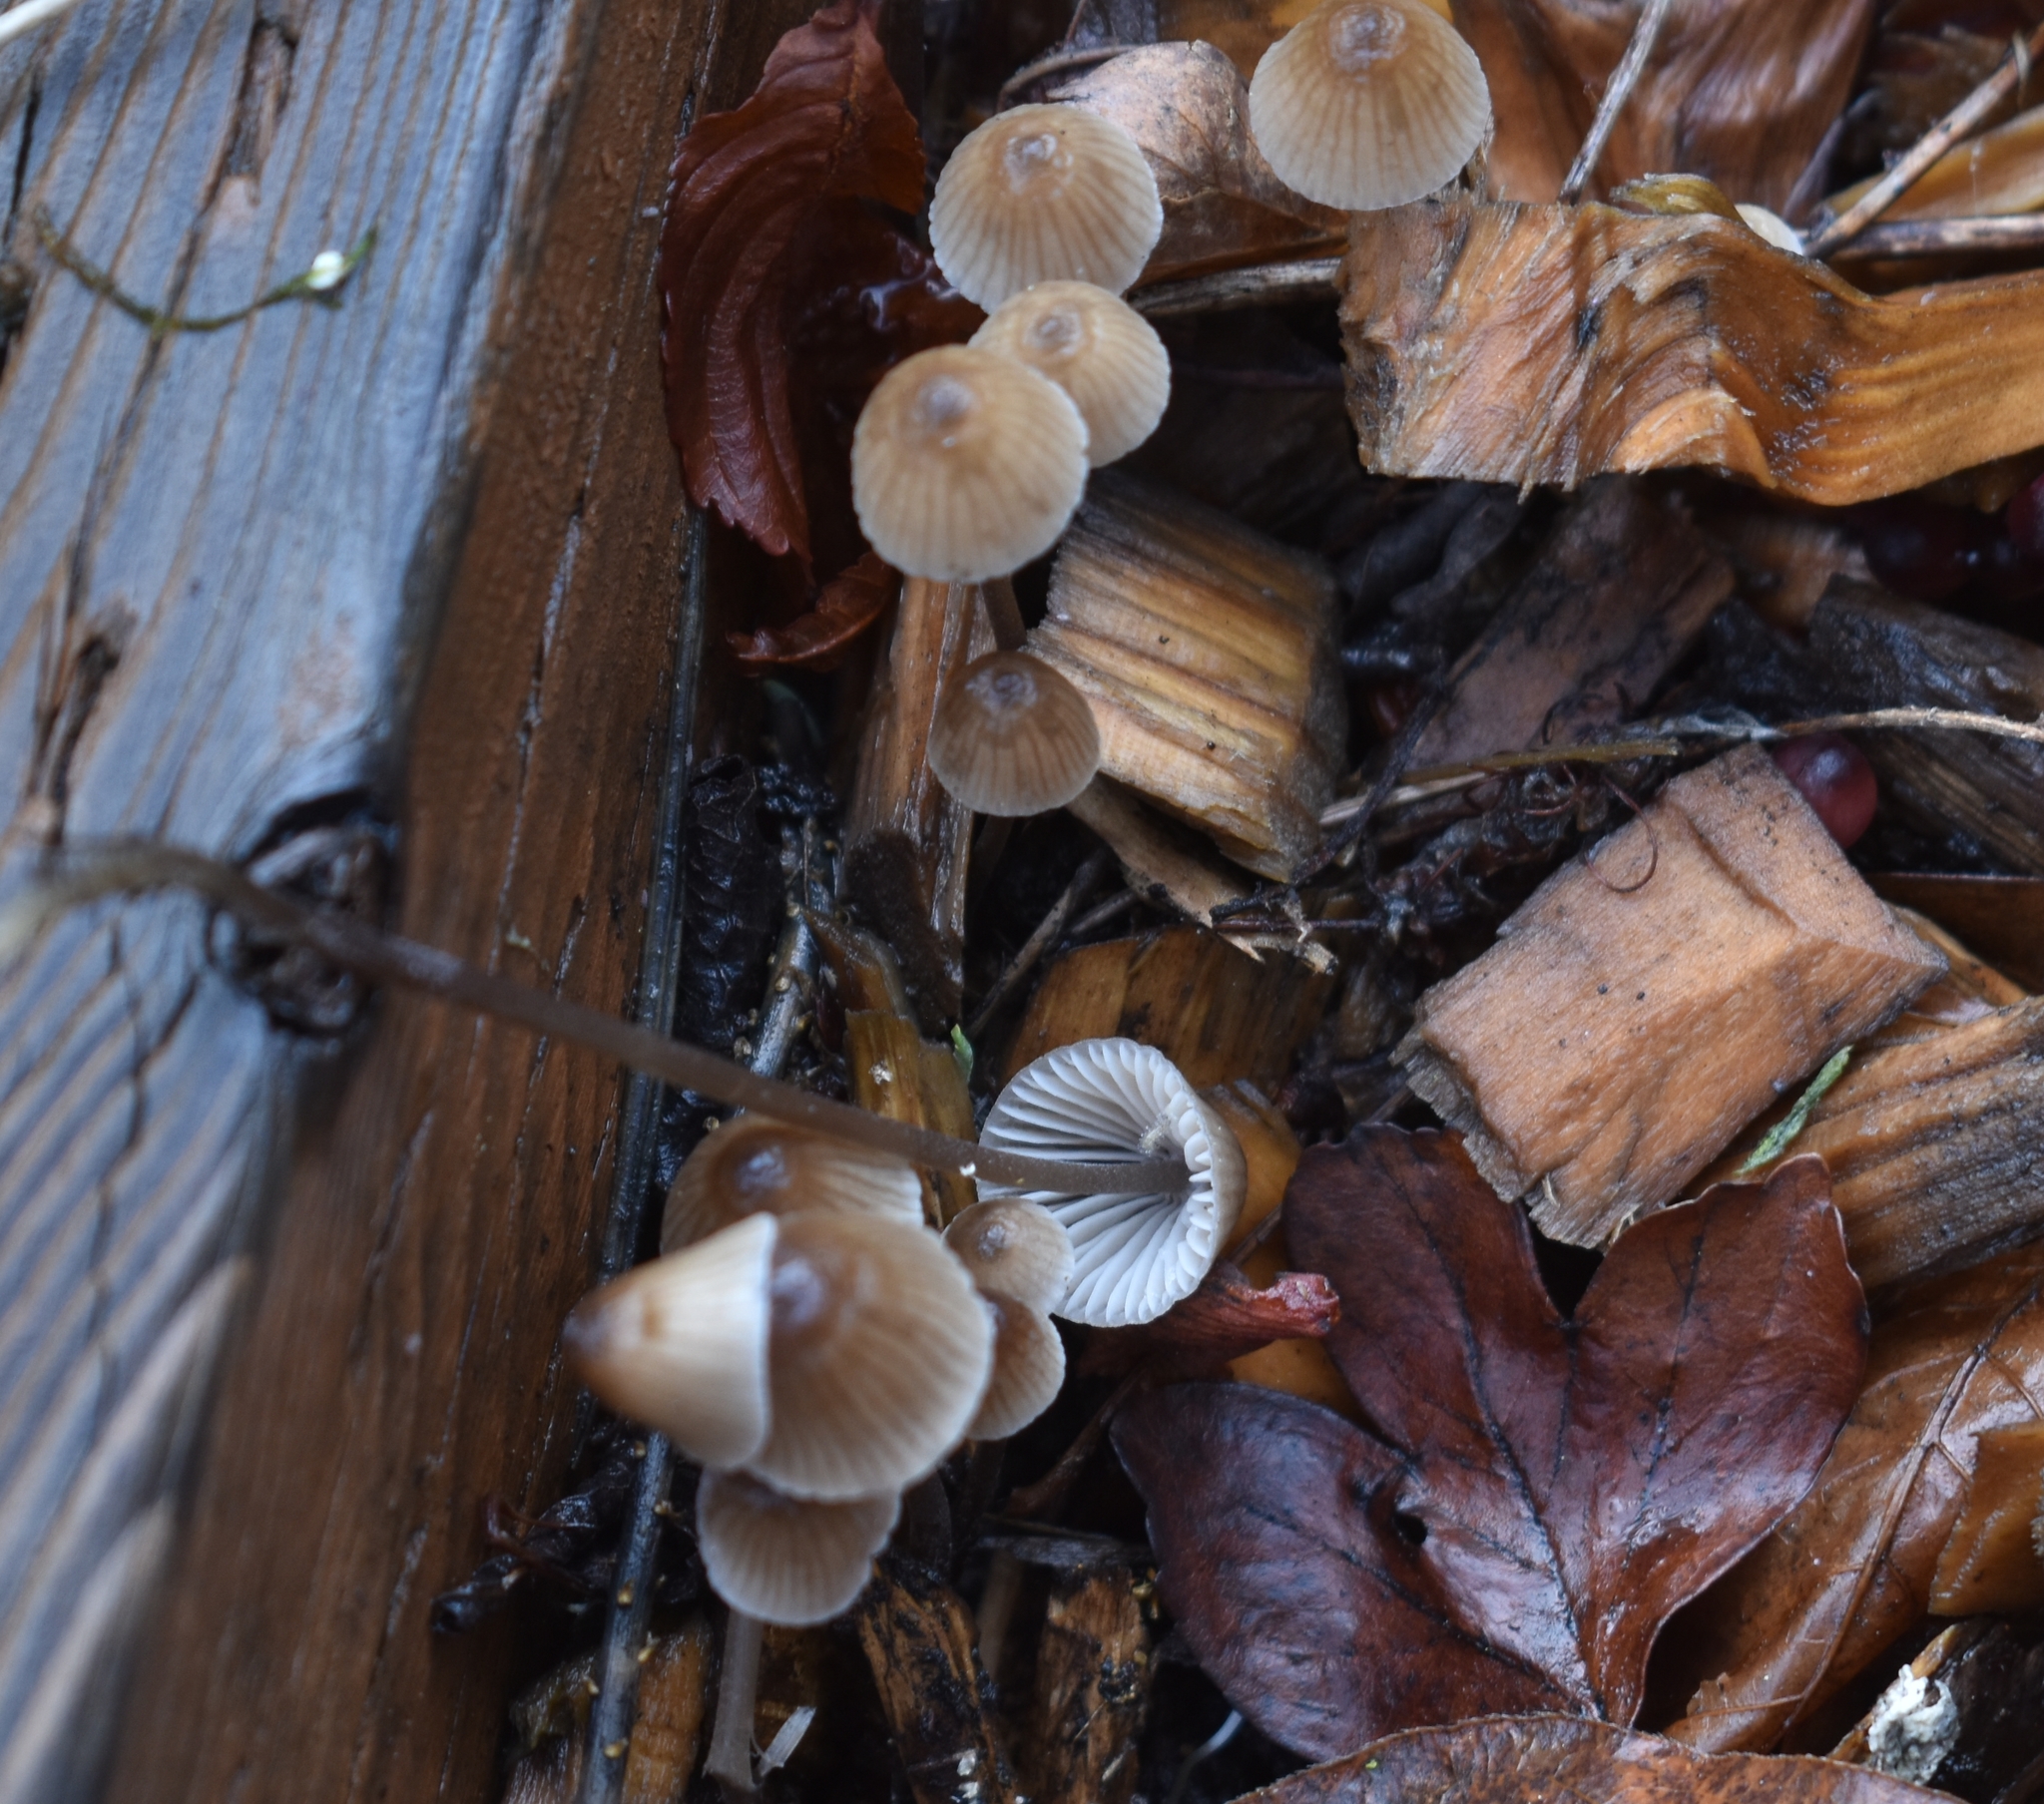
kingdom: Fungi
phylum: Basidiomycota
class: Agaricomycetes
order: Agaricales
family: Mycenaceae
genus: Mycena
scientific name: Mycena leptocephala
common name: Nitrous bonnet
